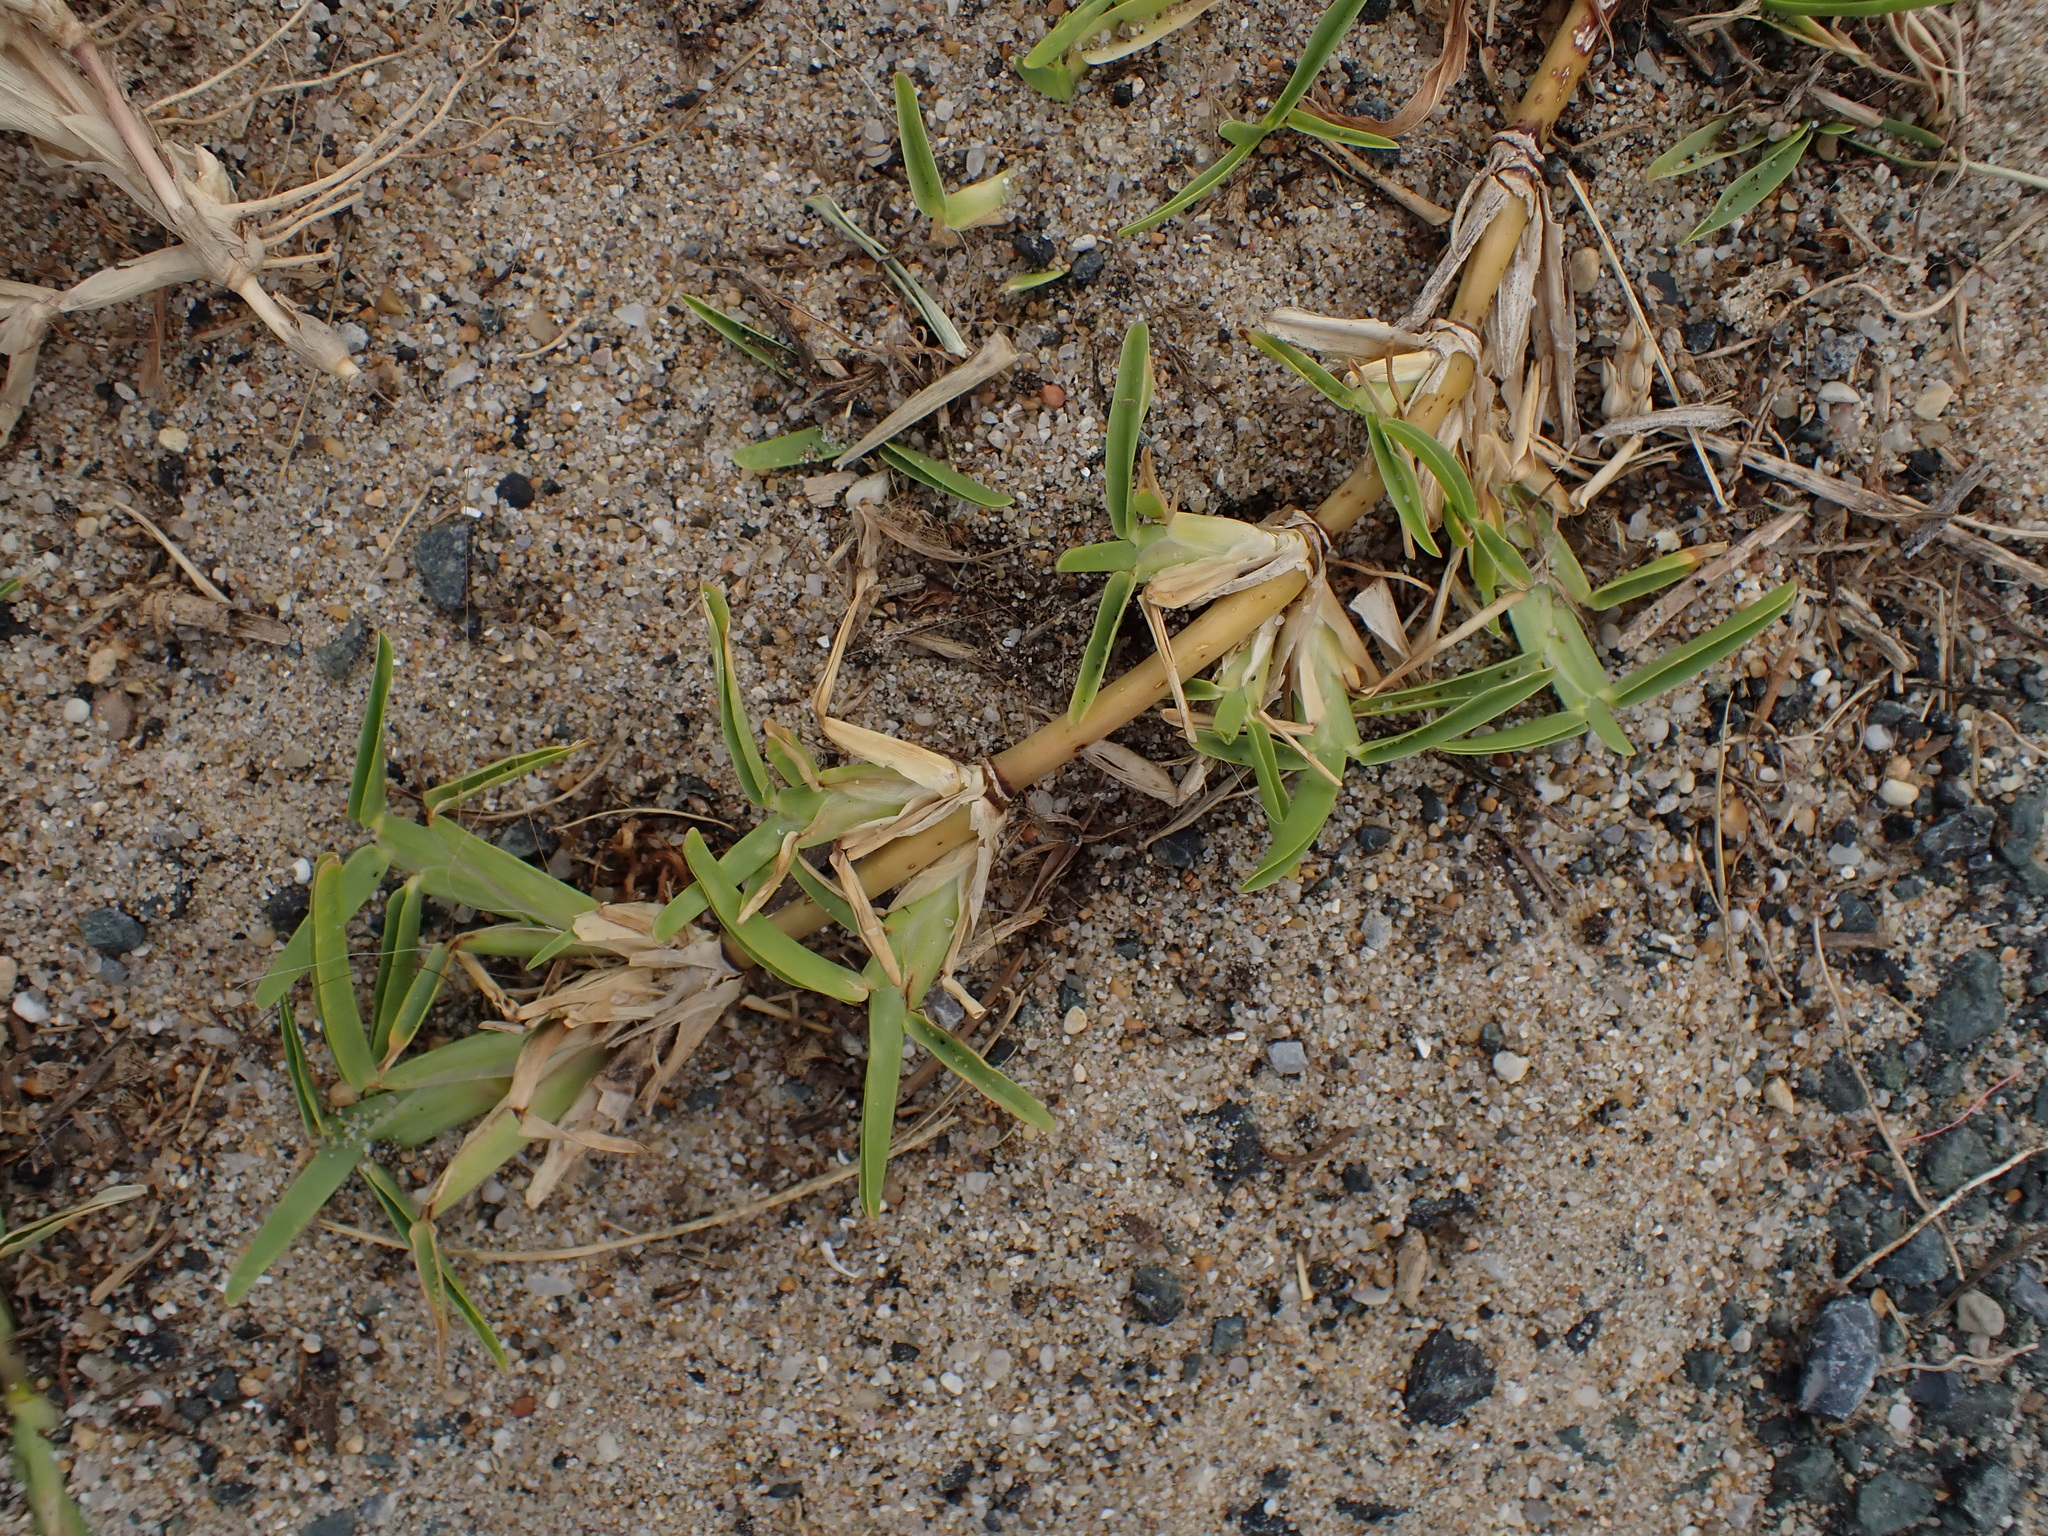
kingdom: Plantae
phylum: Tracheophyta
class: Liliopsida
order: Poales
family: Poaceae
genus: Cynodon
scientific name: Cynodon dactylon
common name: Bermuda grass
